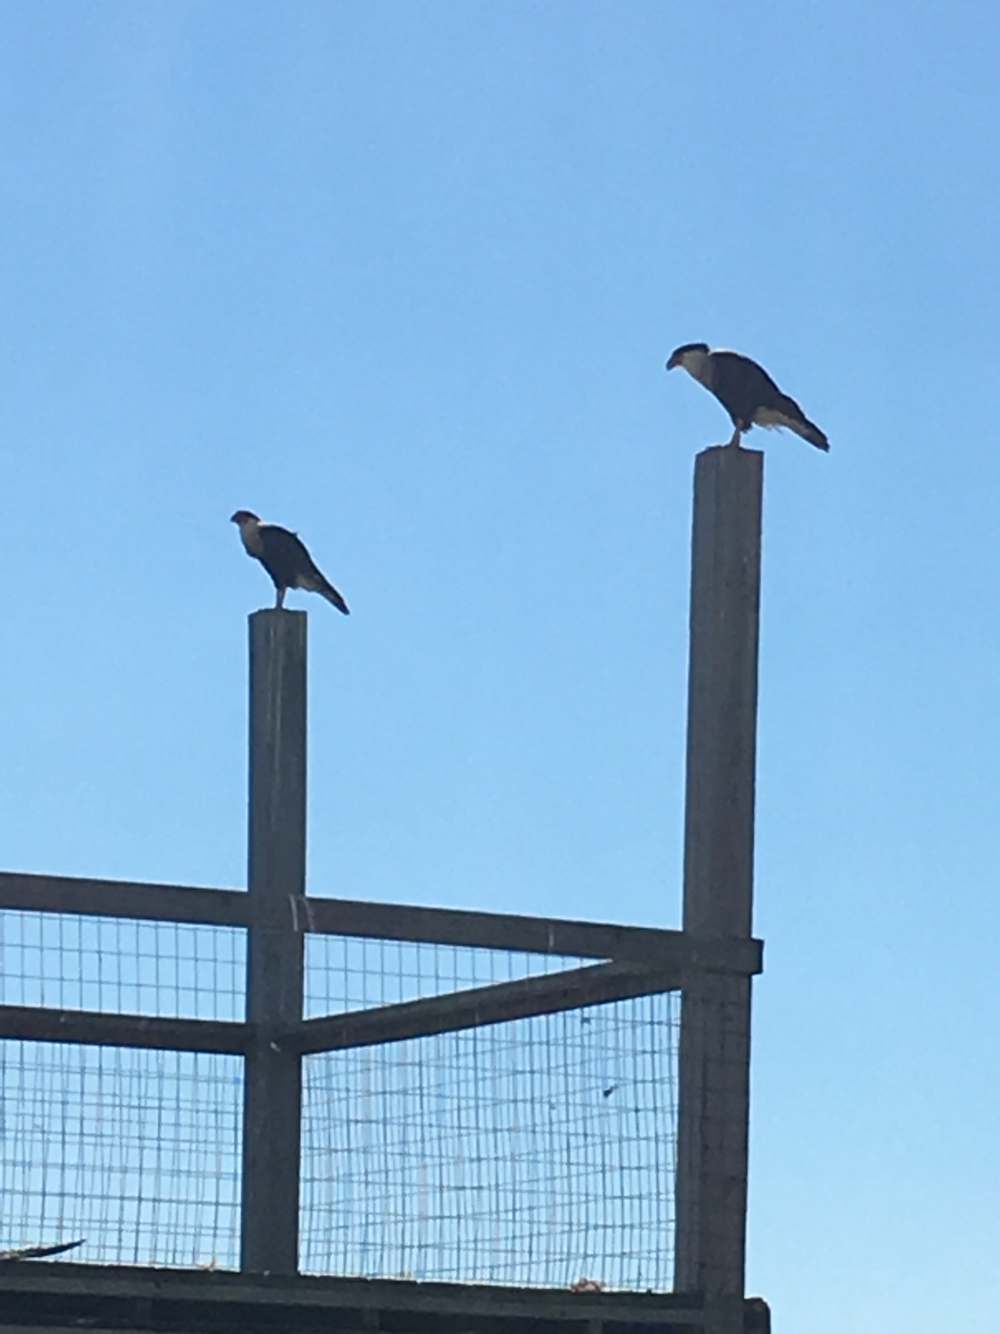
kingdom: Animalia
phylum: Chordata
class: Aves
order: Falconiformes
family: Falconidae
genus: Caracara
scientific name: Caracara plancus
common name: Southern caracara
